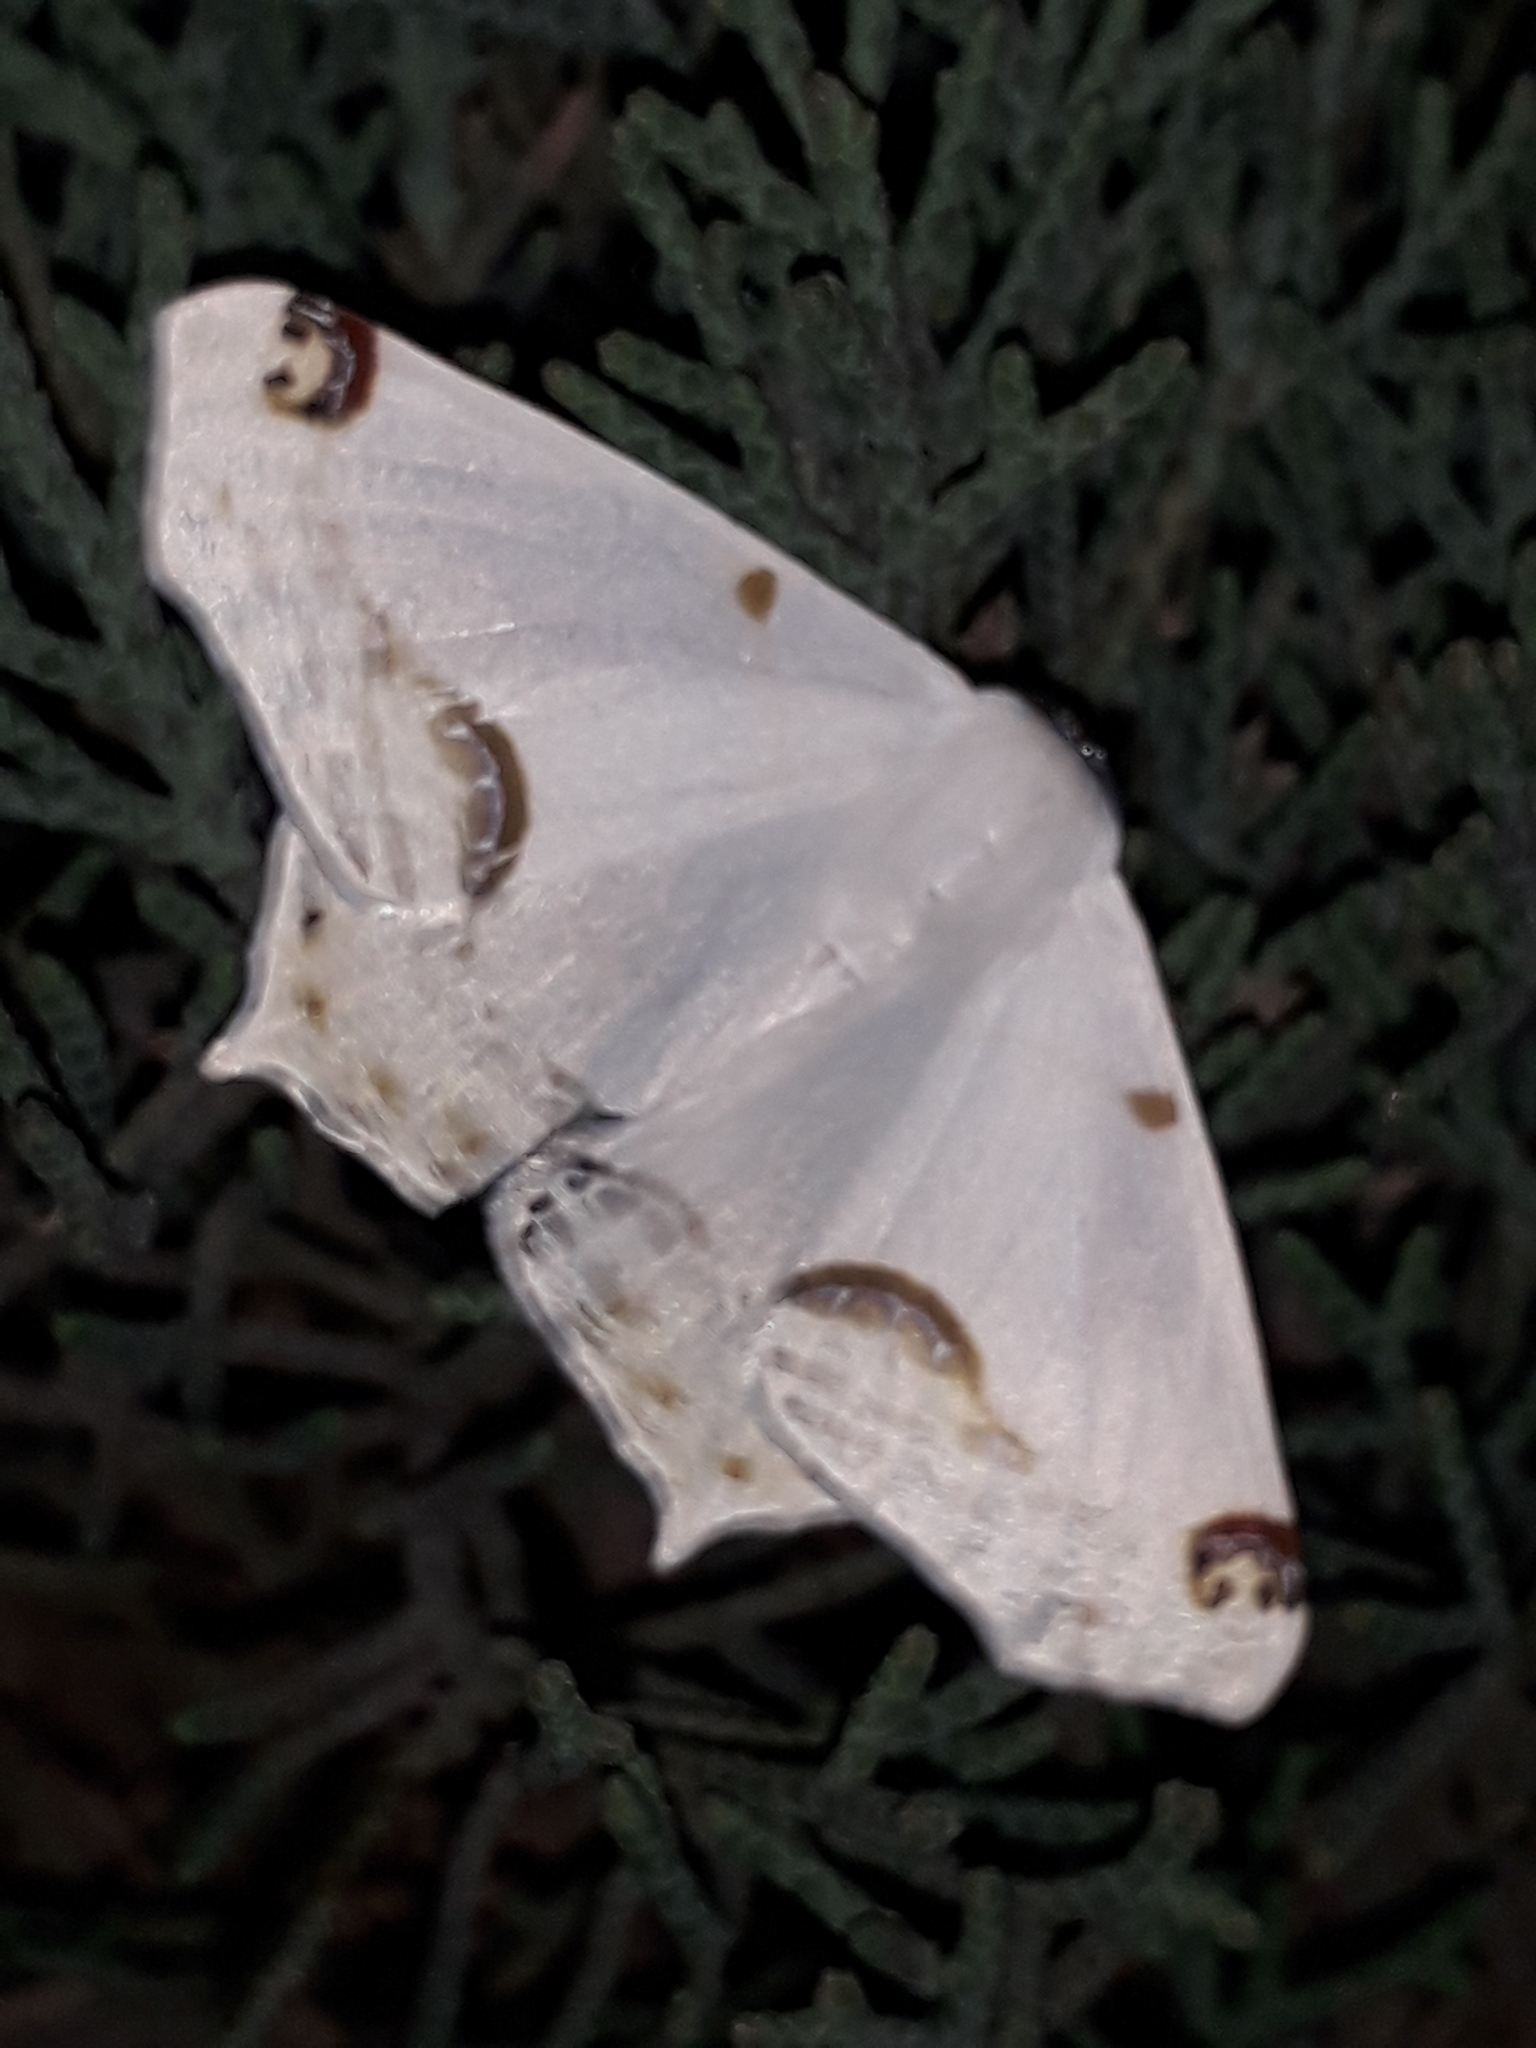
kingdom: Animalia
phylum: Arthropoda
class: Insecta
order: Lepidoptera
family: Geometridae
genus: Sericoptera
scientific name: Sericoptera mahometaria
